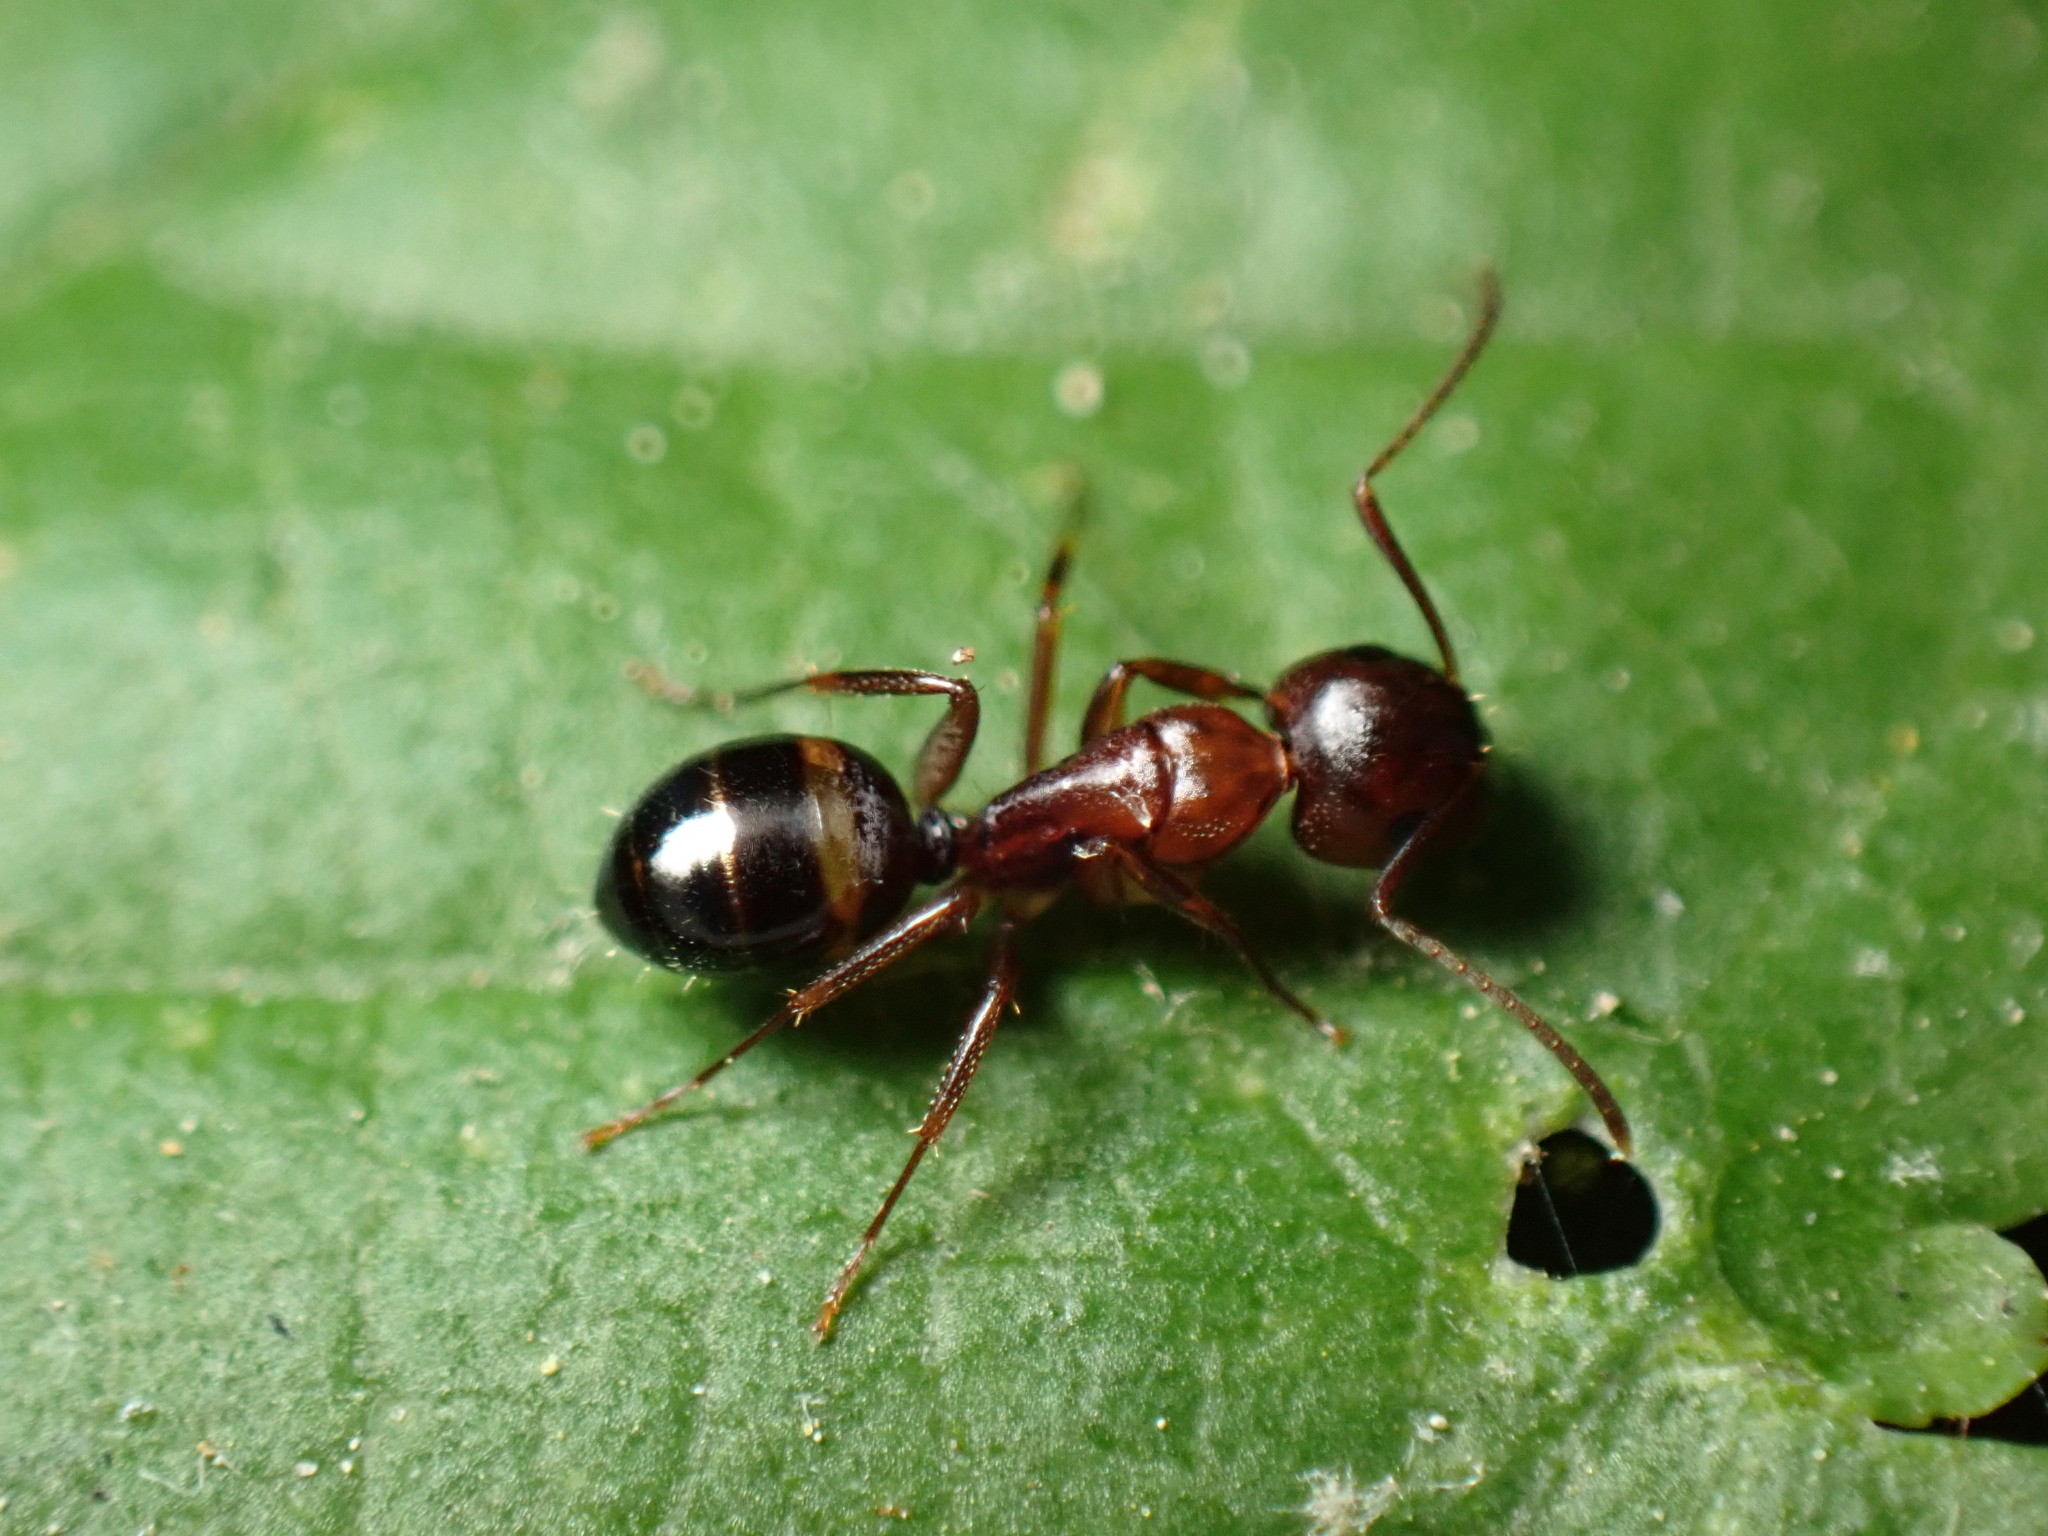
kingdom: Animalia
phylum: Arthropoda
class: Insecta
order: Hymenoptera
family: Formicidae
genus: Camponotus
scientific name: Camponotus subbarbatus
